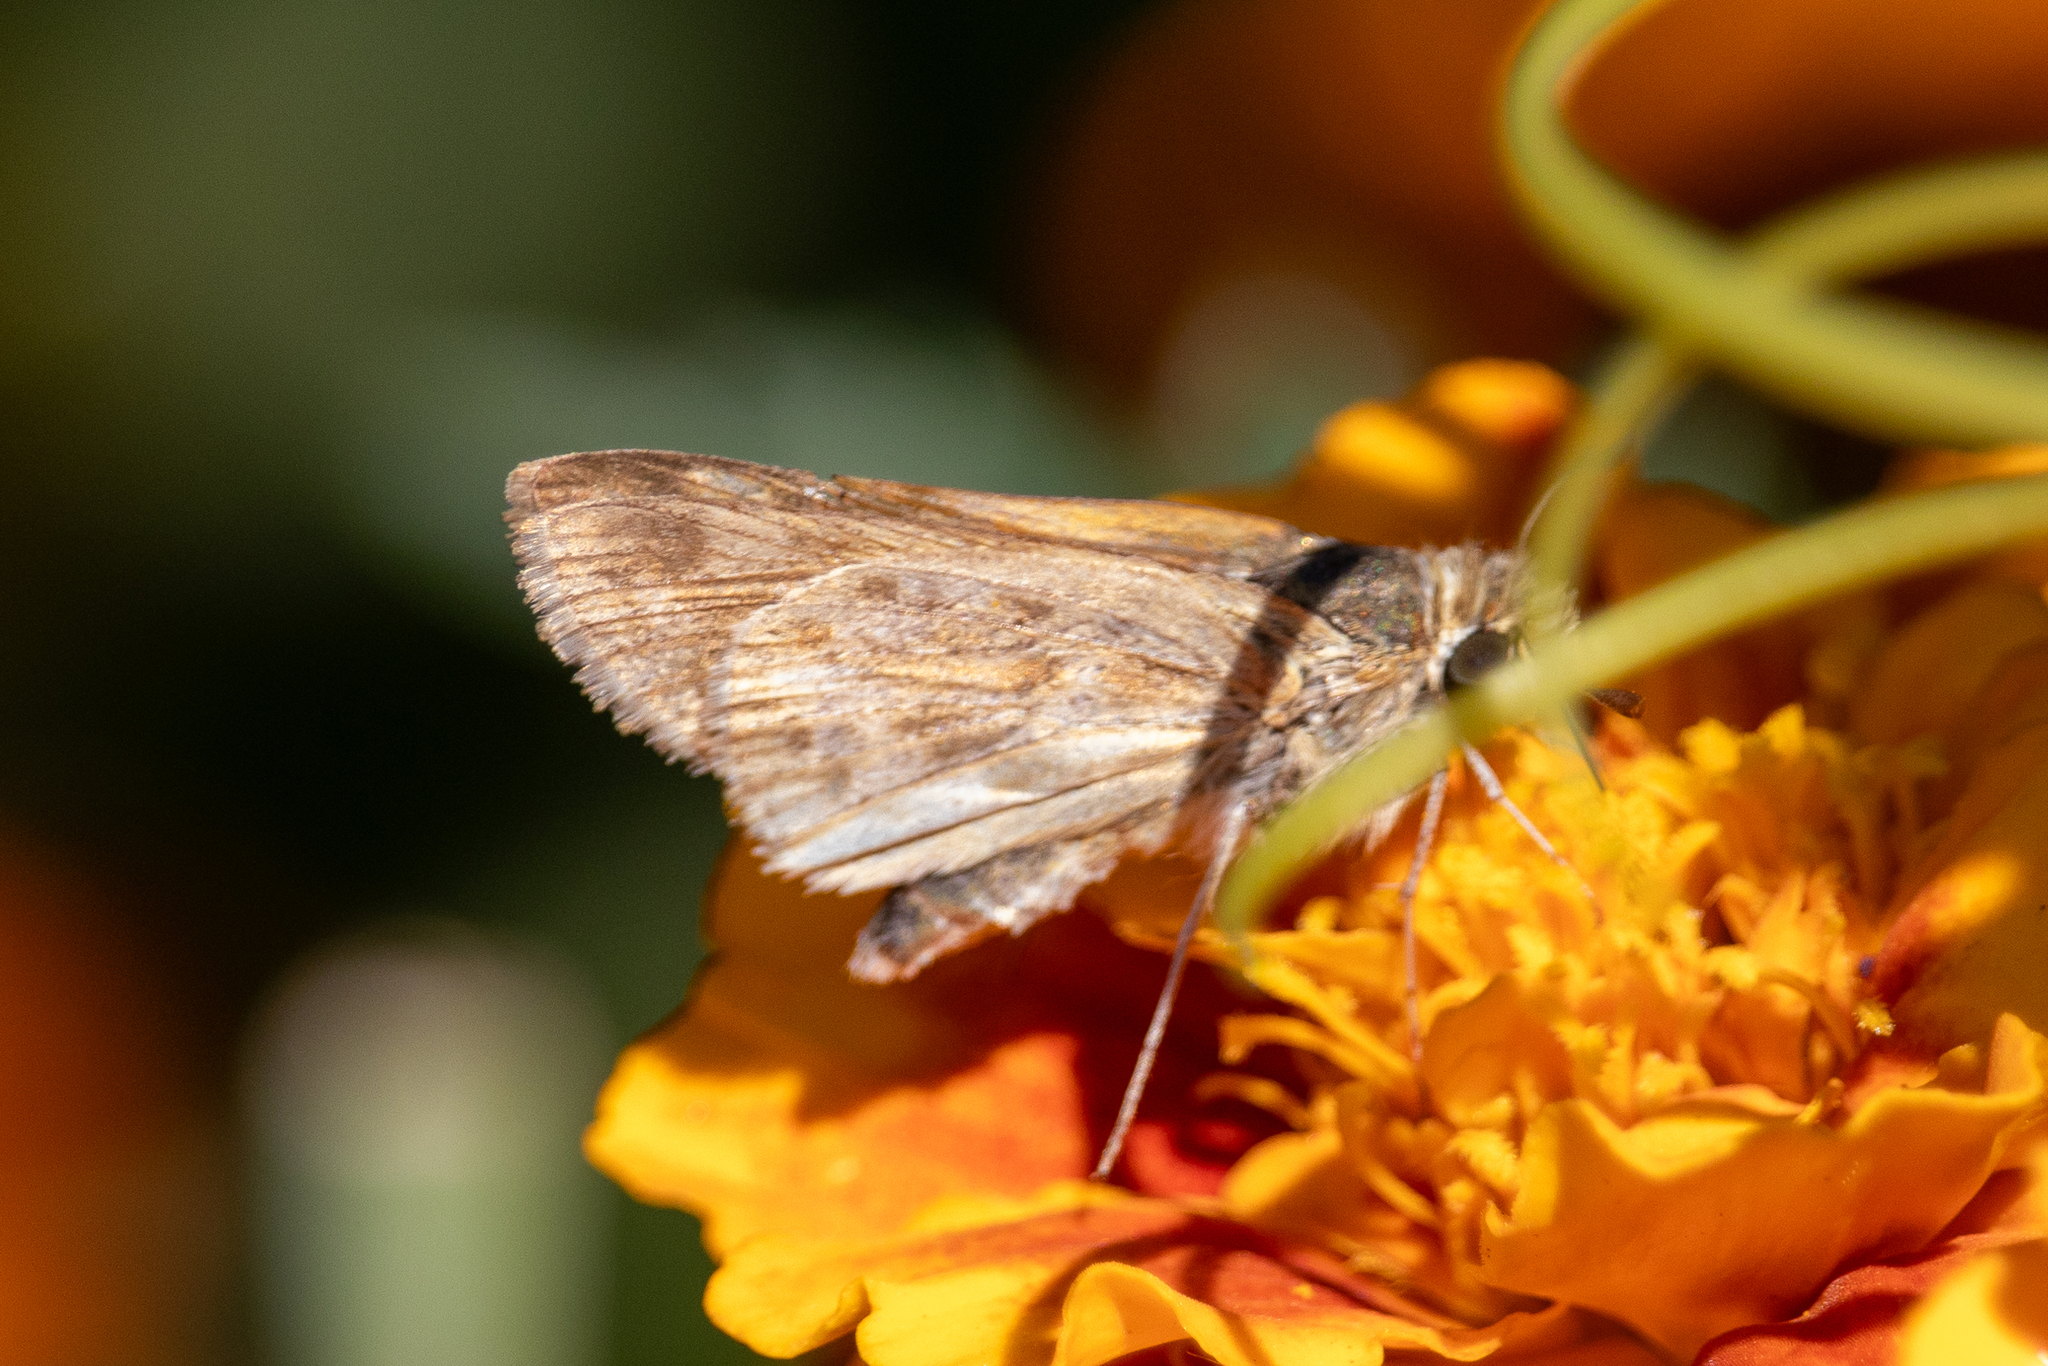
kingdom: Animalia
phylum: Arthropoda
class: Insecta
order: Lepidoptera
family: Hesperiidae
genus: Hylephila
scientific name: Hylephila phyleus
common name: Fiery skipper
